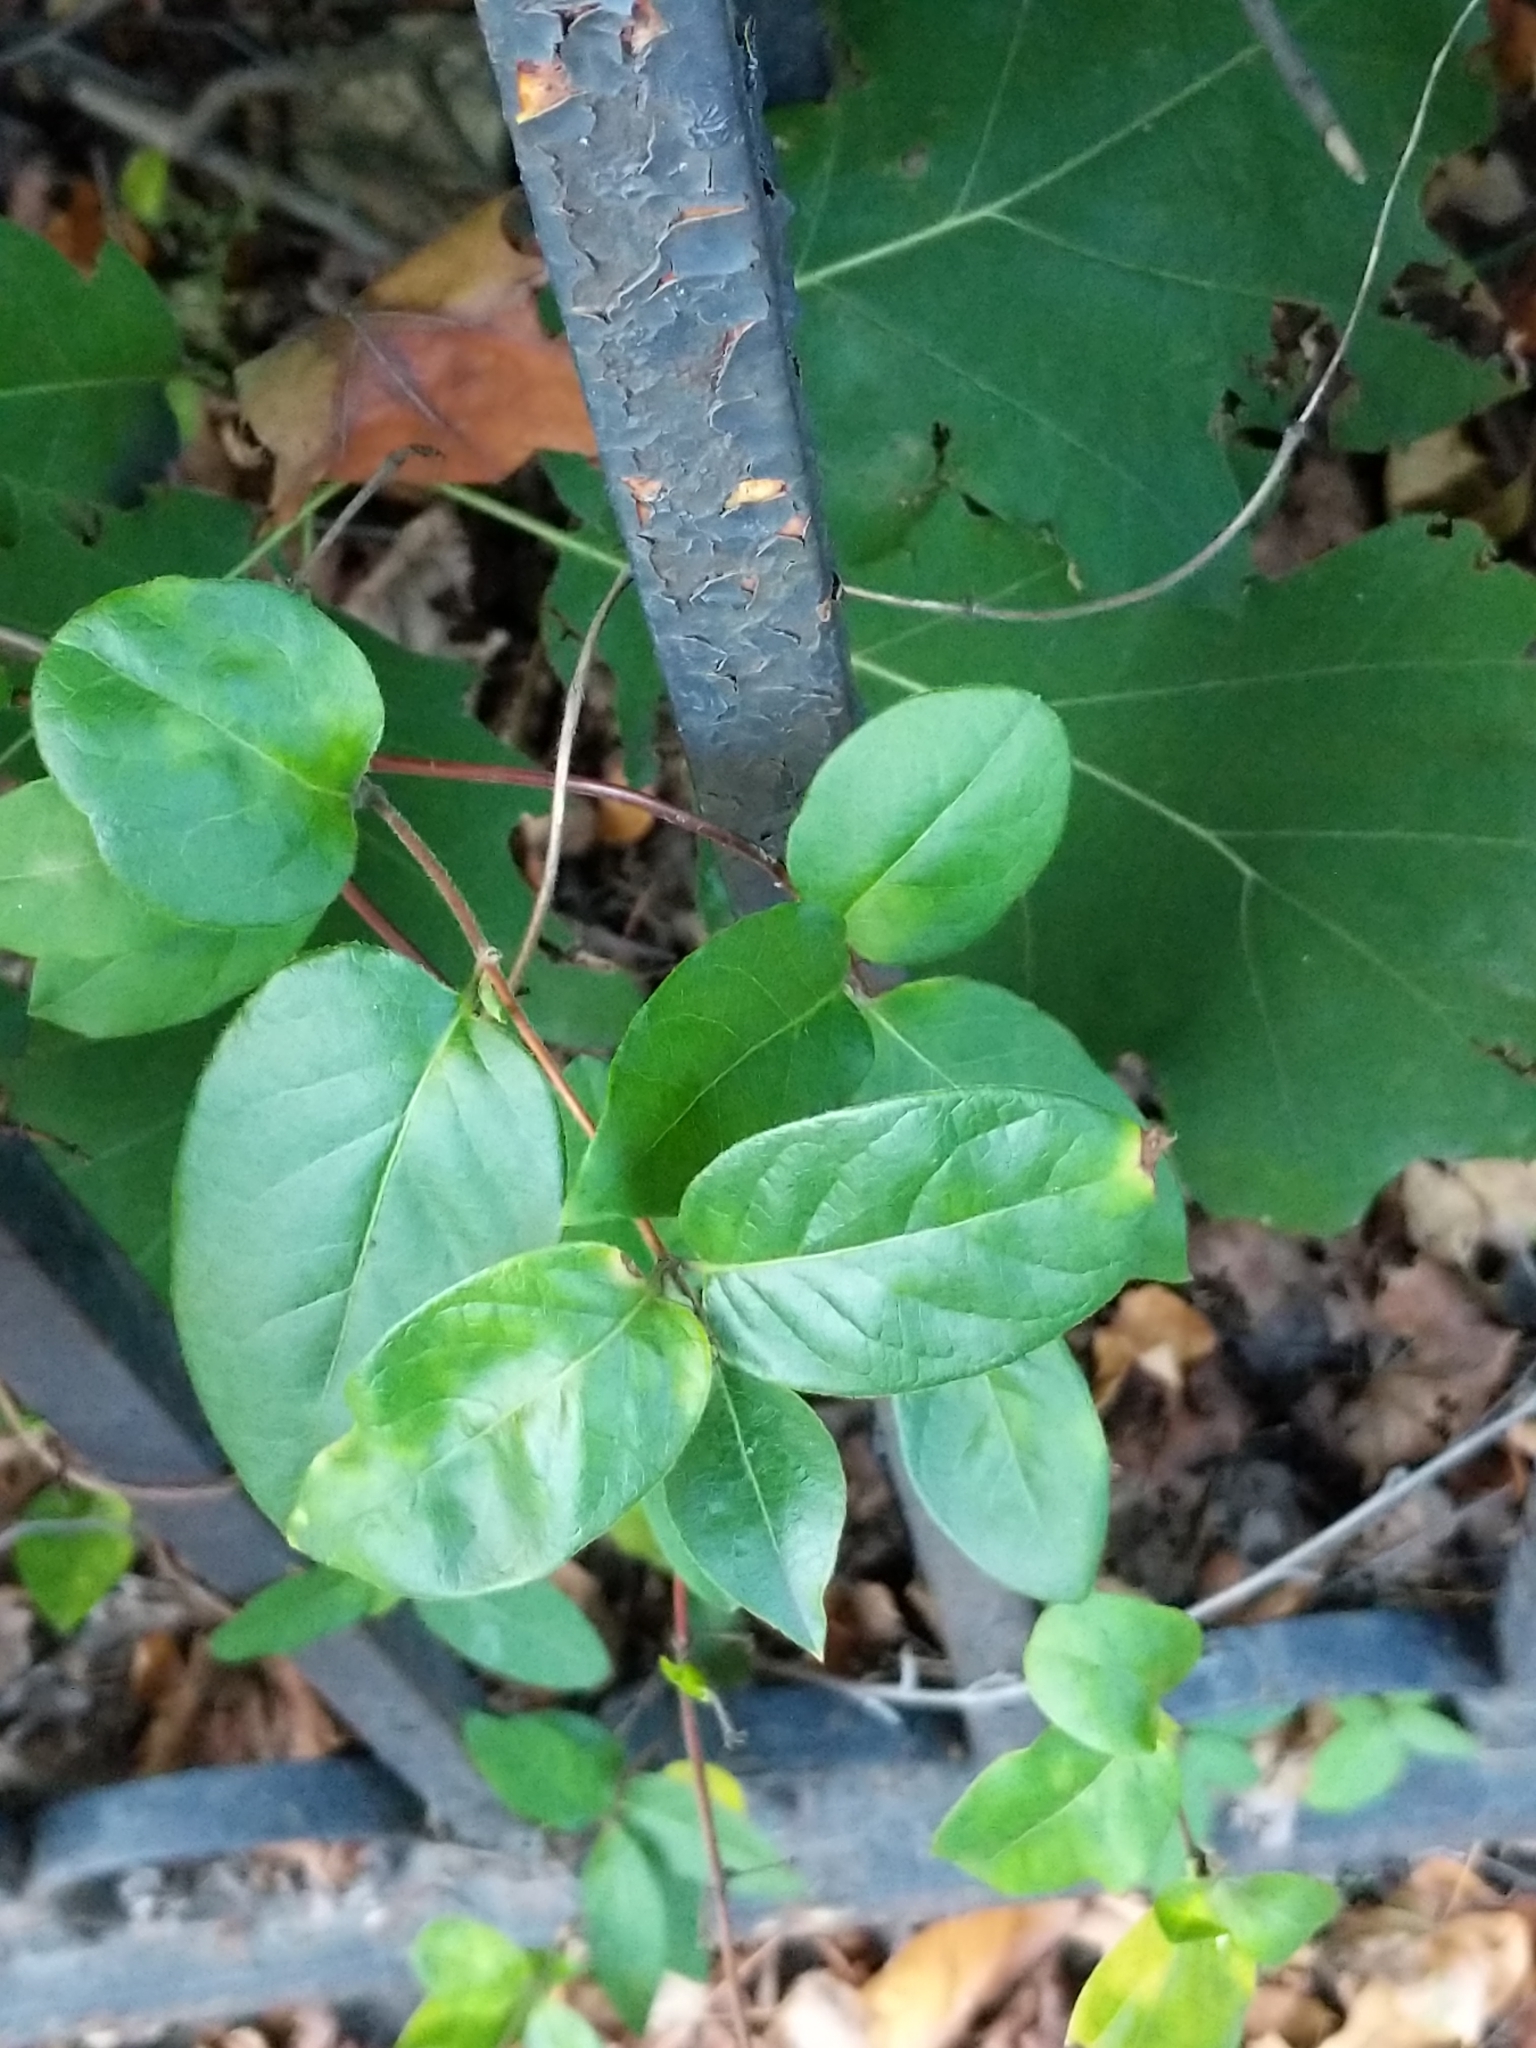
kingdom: Plantae
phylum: Tracheophyta
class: Magnoliopsida
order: Dipsacales
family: Caprifoliaceae
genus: Lonicera
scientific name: Lonicera japonica
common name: Japanese honeysuckle
